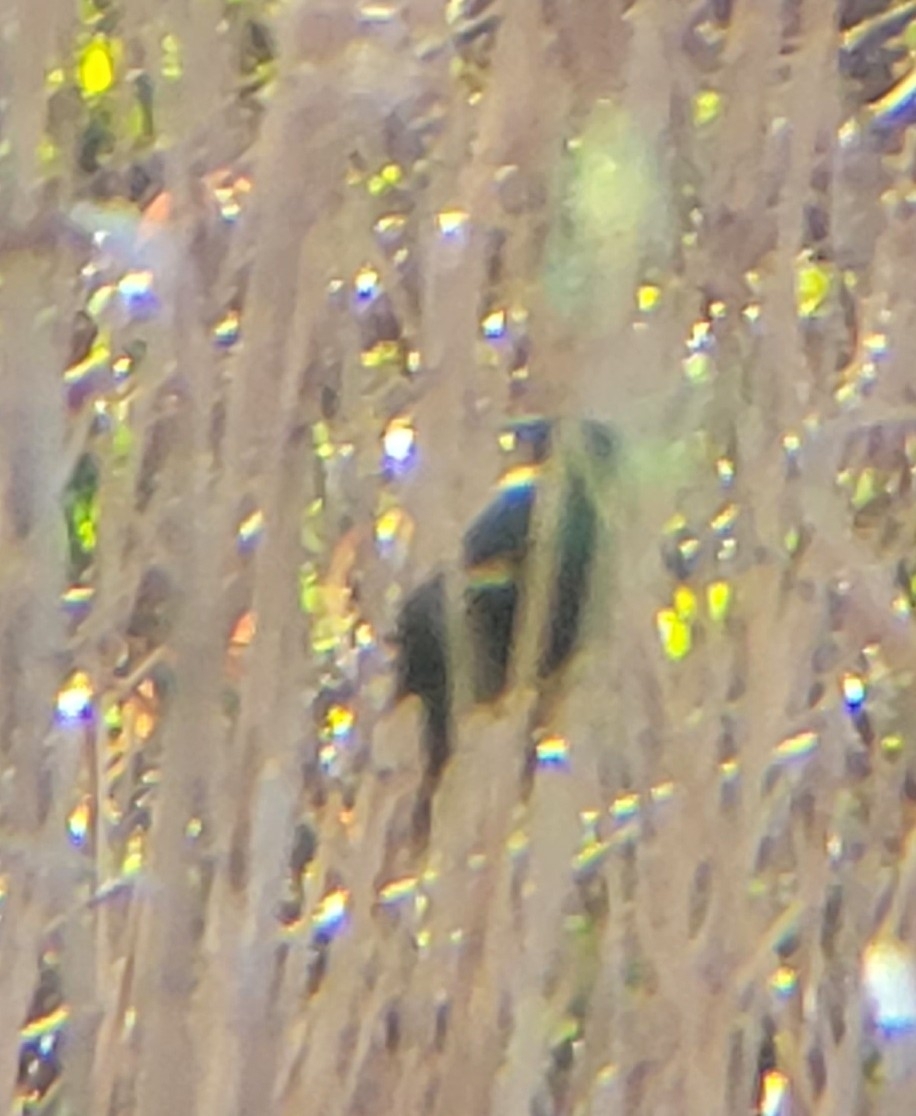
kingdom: Animalia
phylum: Chordata
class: Aves
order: Passeriformes
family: Icteridae
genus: Agelaius
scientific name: Agelaius phoeniceus
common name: Red-winged blackbird
